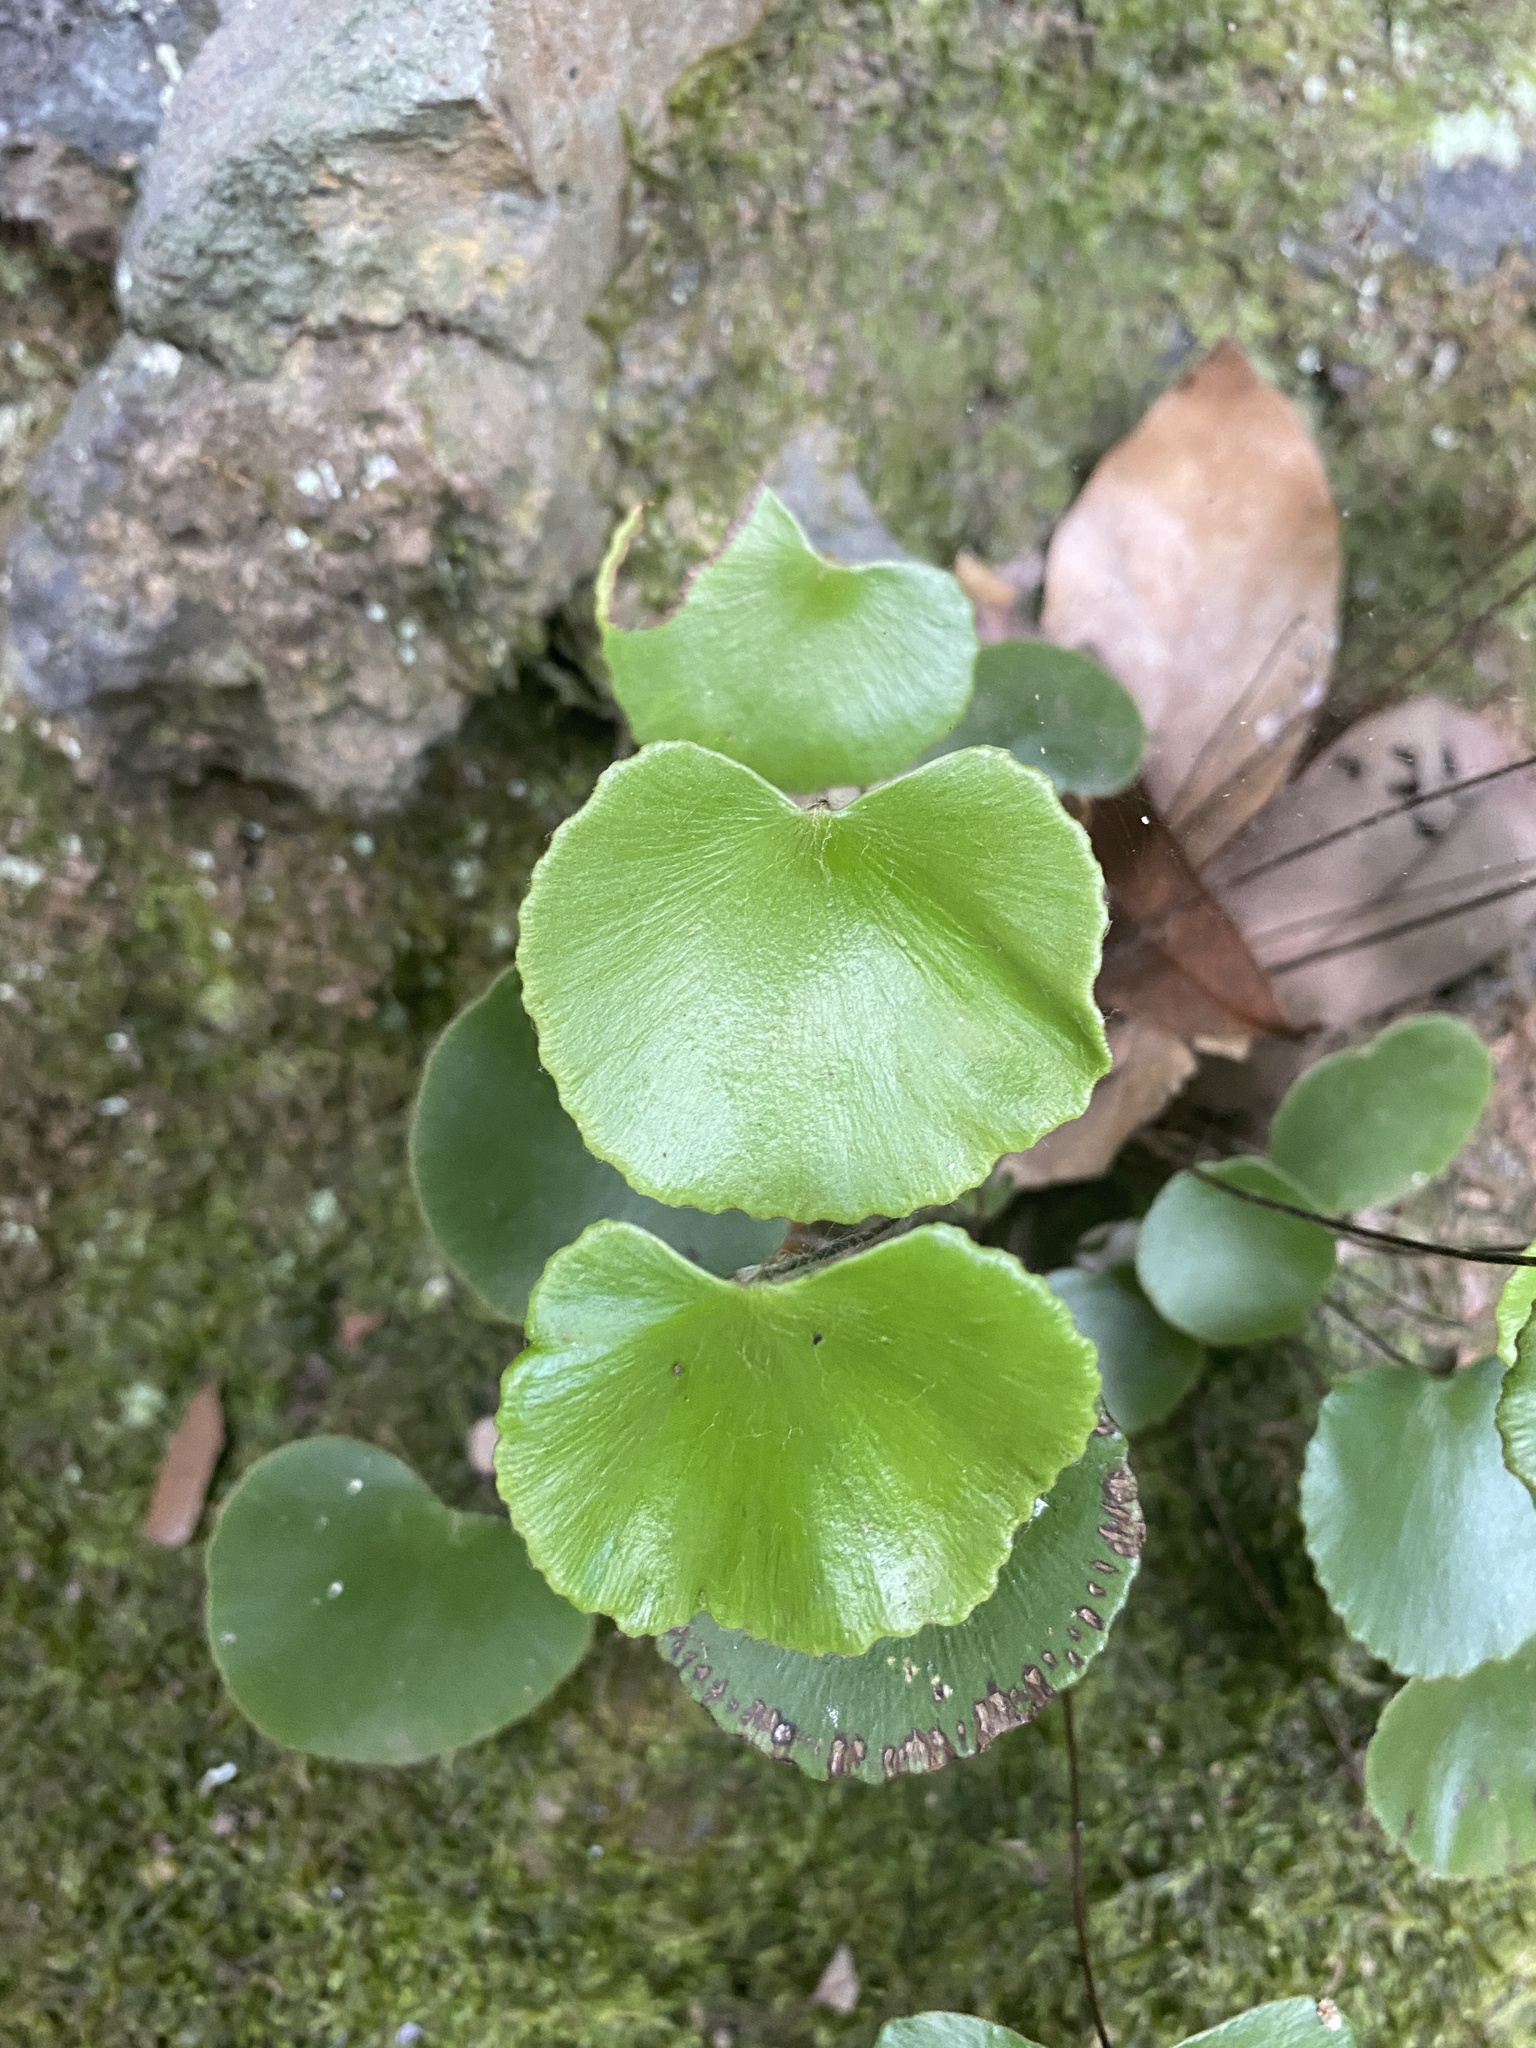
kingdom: Plantae
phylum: Tracheophyta
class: Polypodiopsida
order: Polypodiales
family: Pteridaceae
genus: Adiantum
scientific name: Adiantum reniforme
